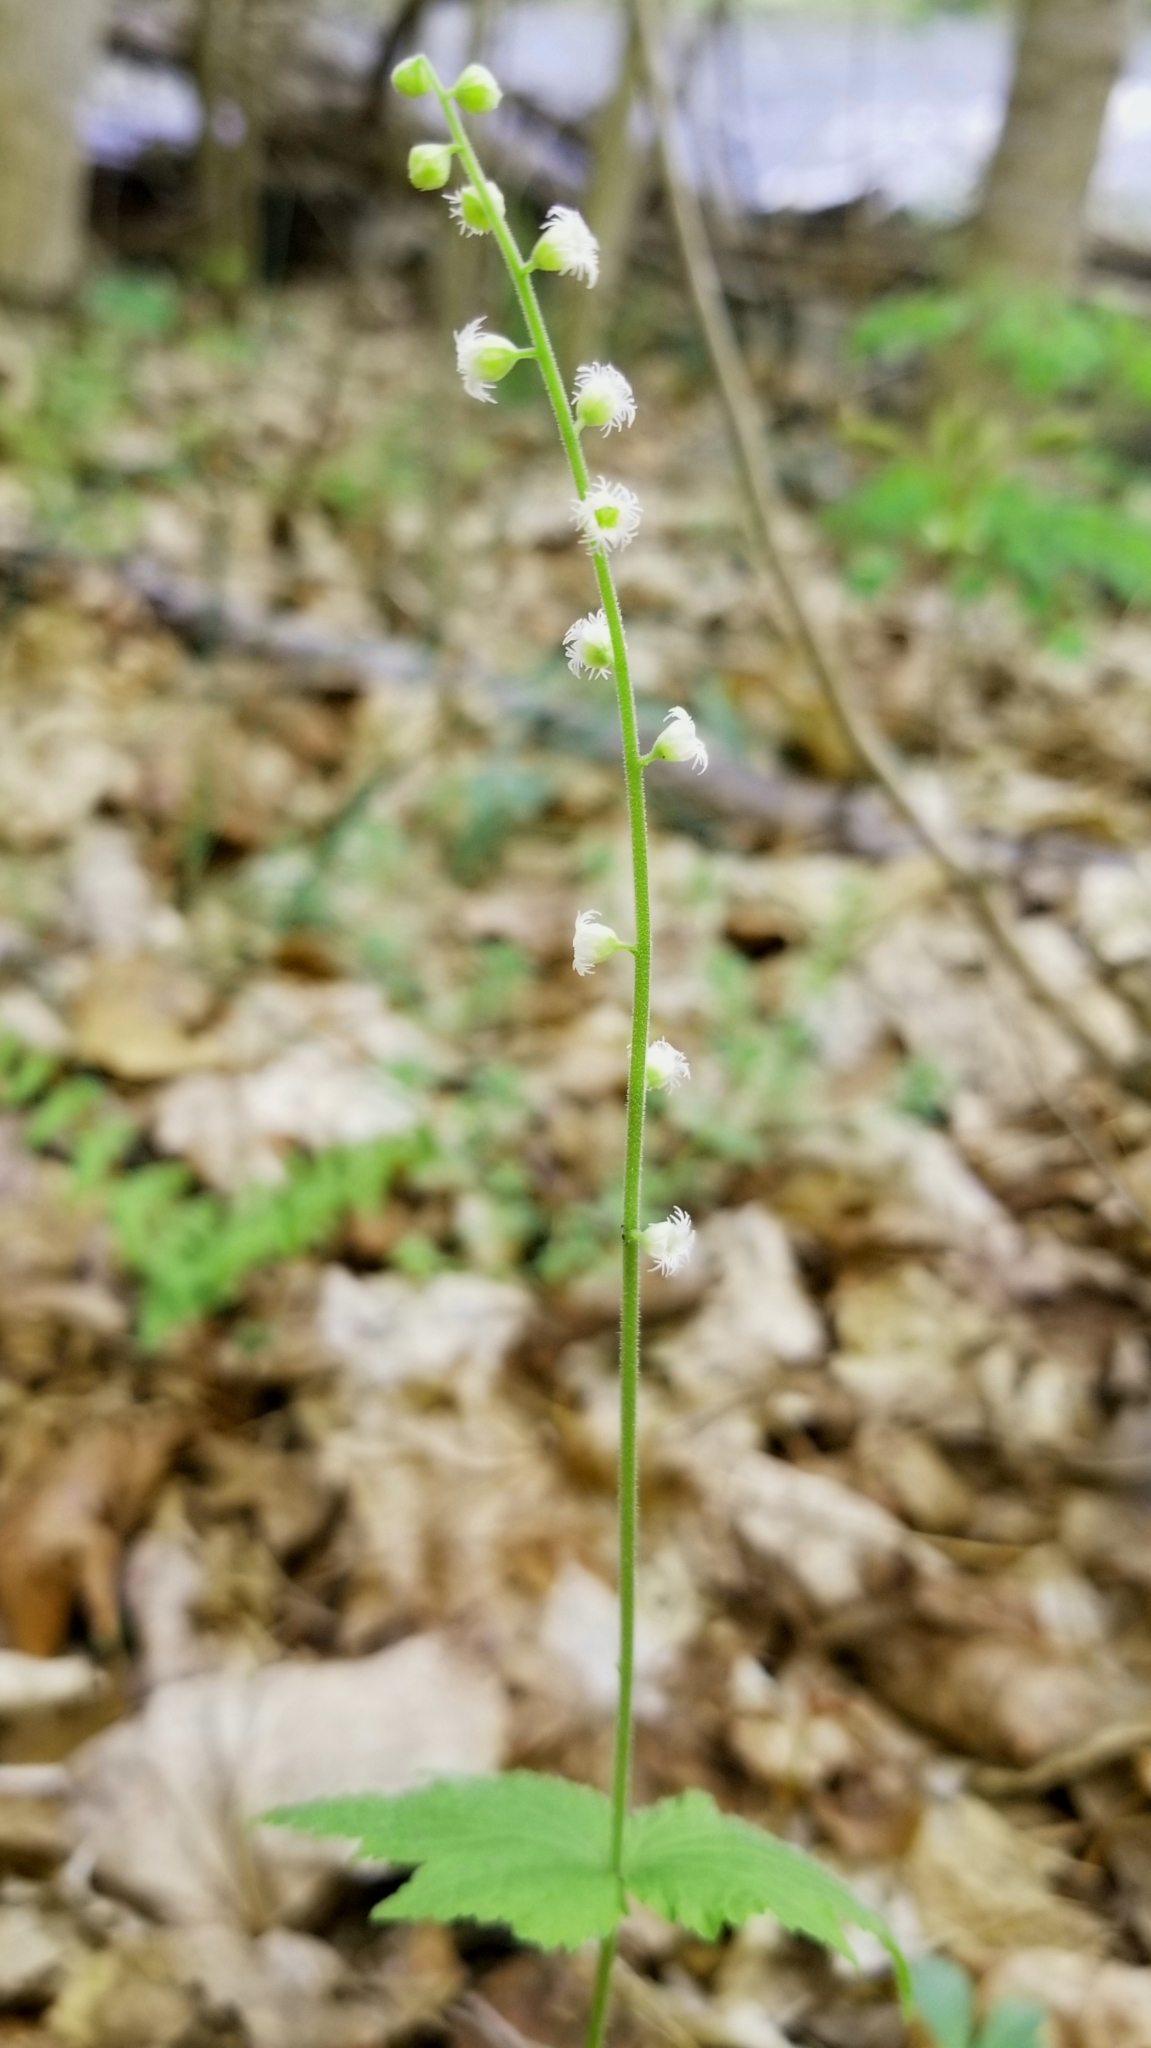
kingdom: Plantae
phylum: Tracheophyta
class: Magnoliopsida
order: Saxifragales
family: Saxifragaceae
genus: Mitella
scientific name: Mitella diphylla
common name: Coolwort
